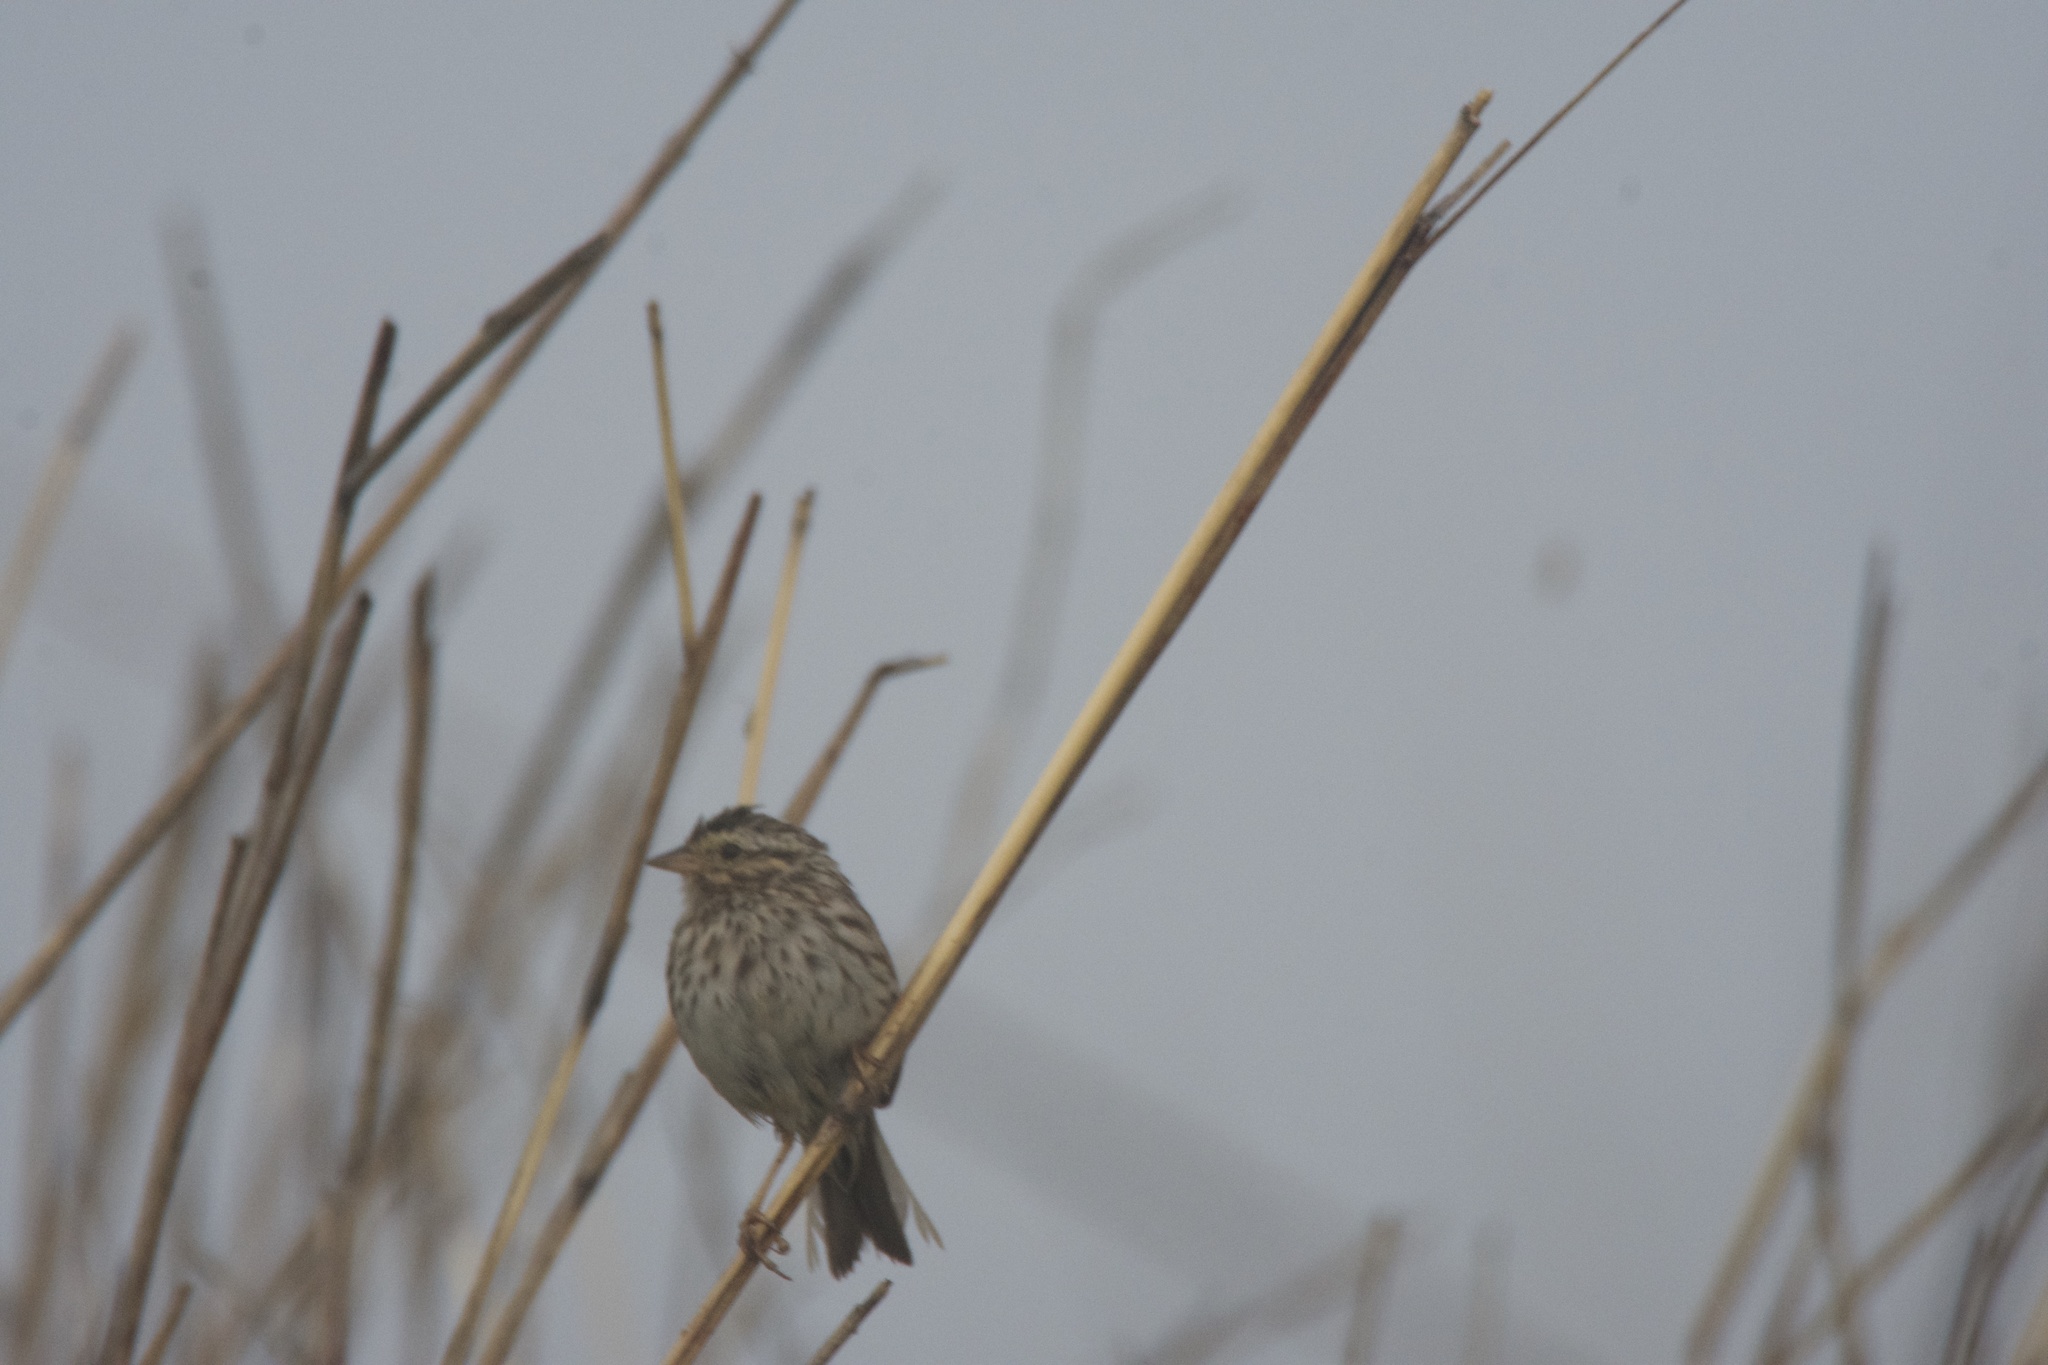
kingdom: Animalia
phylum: Chordata
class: Aves
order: Passeriformes
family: Passerellidae
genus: Passerculus
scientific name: Passerculus sandwichensis
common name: Savannah sparrow
